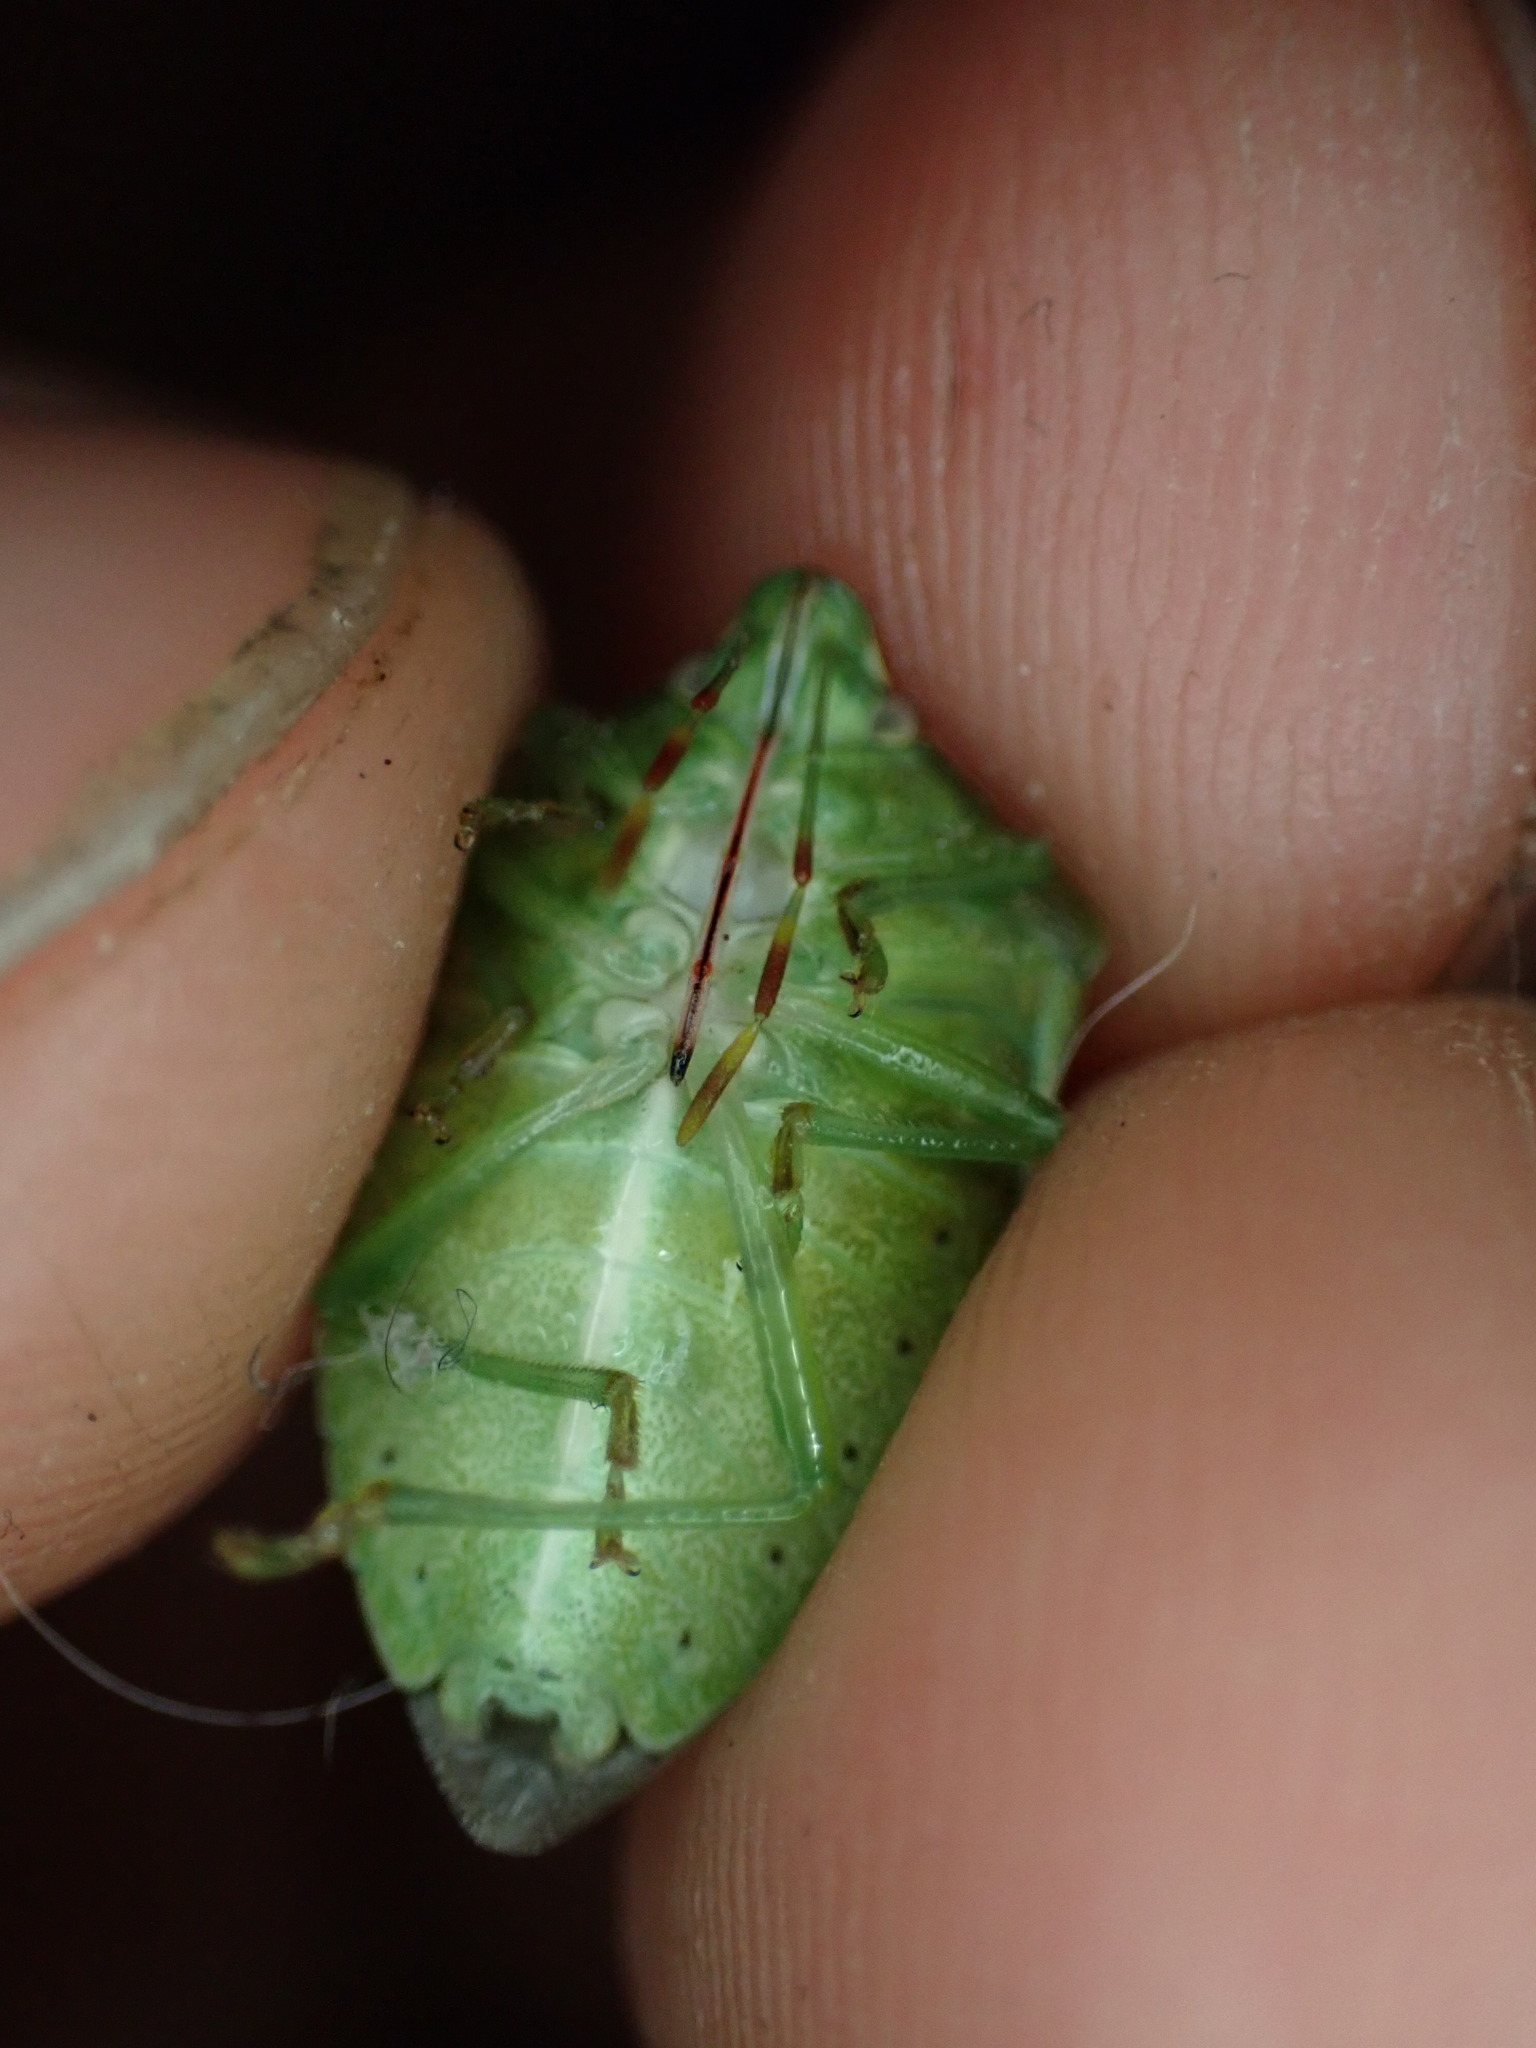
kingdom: Animalia
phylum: Arthropoda
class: Insecta
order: Hemiptera
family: Pentatomidae
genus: Nezara
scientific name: Nezara viridula
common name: Southern green stink bug
